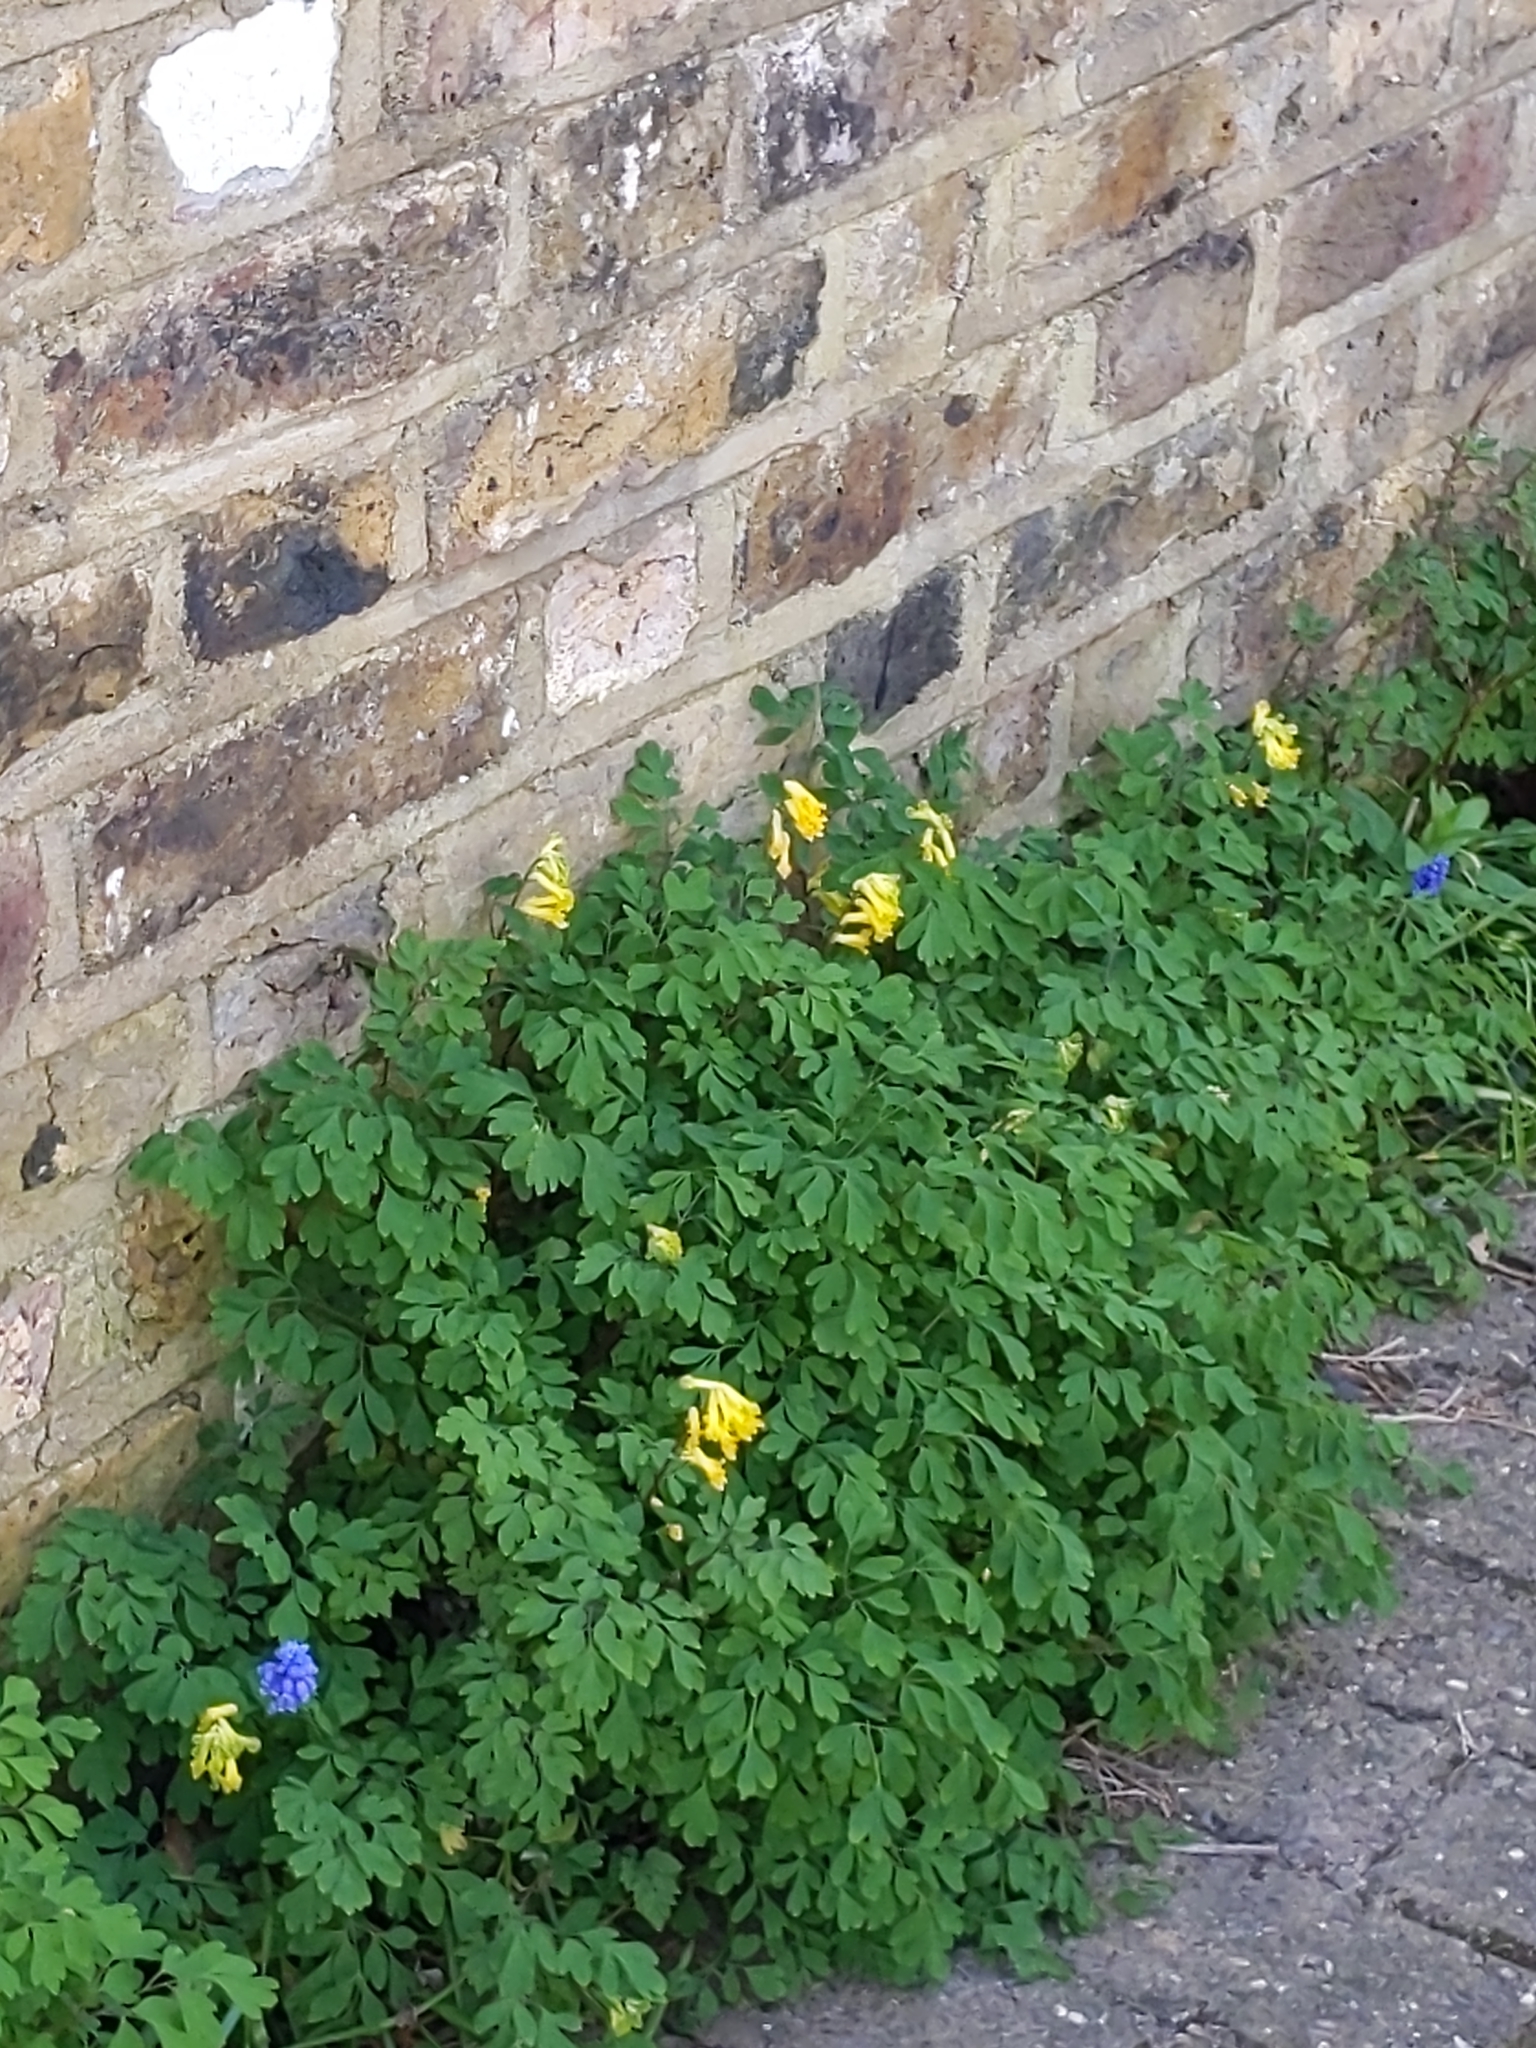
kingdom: Plantae
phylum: Tracheophyta
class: Magnoliopsida
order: Ranunculales
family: Papaveraceae
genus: Pseudofumaria
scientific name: Pseudofumaria lutea
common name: Yellow corydalis
